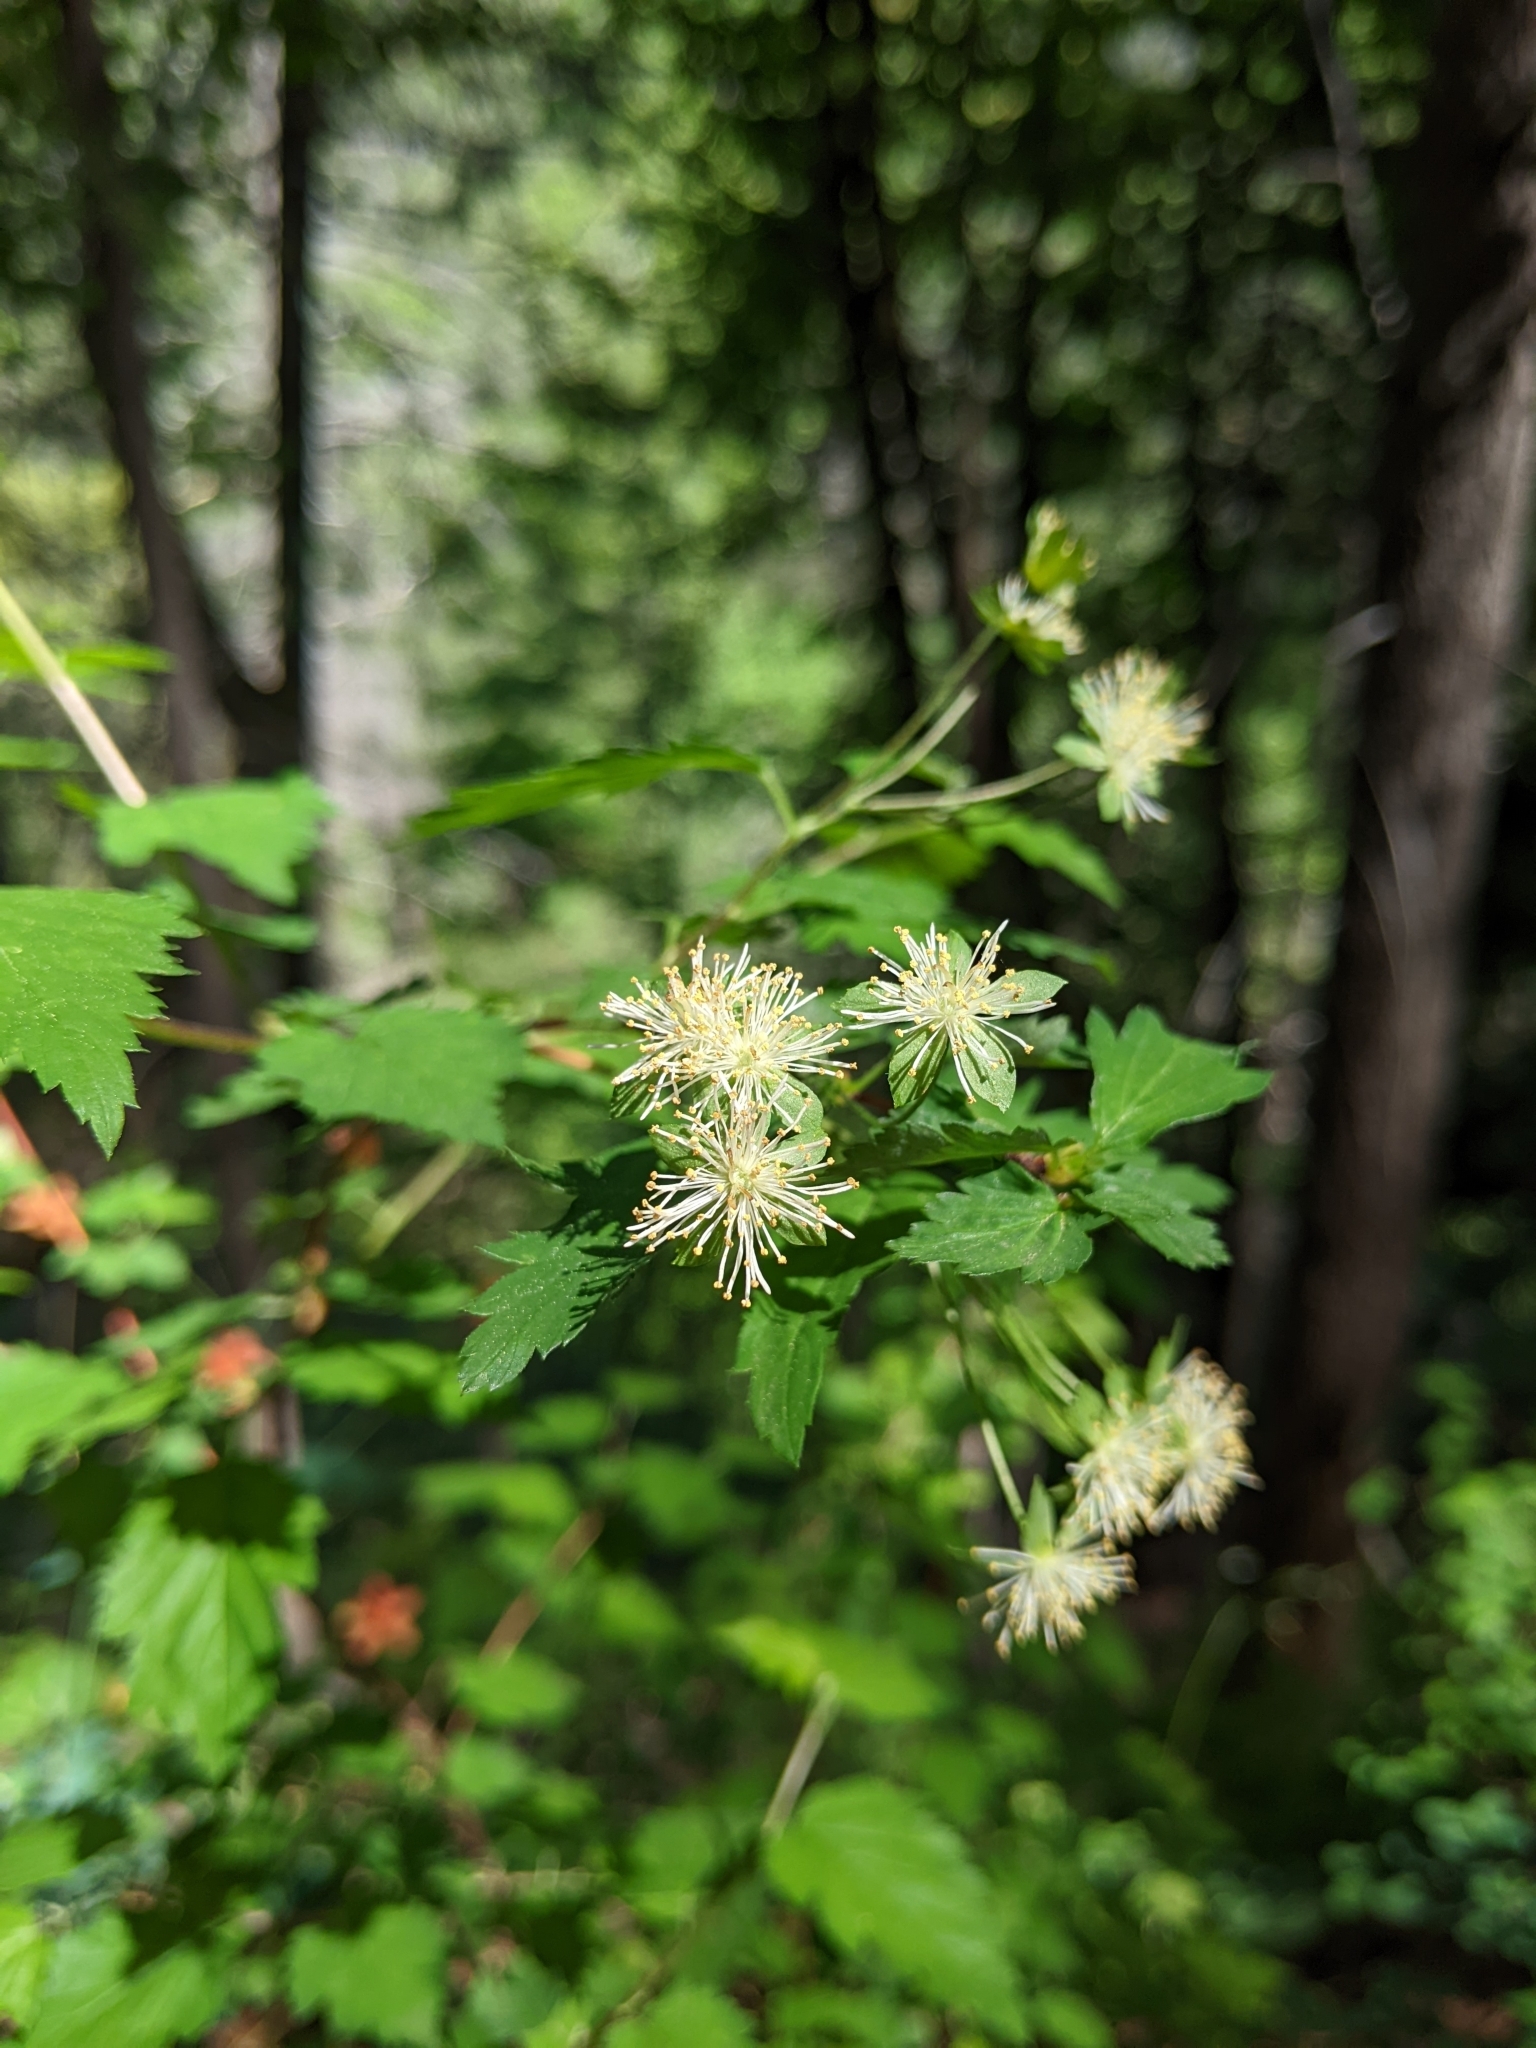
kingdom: Plantae
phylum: Tracheophyta
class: Magnoliopsida
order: Rosales
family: Rosaceae
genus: Neviusia
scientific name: Neviusia cliftonii
